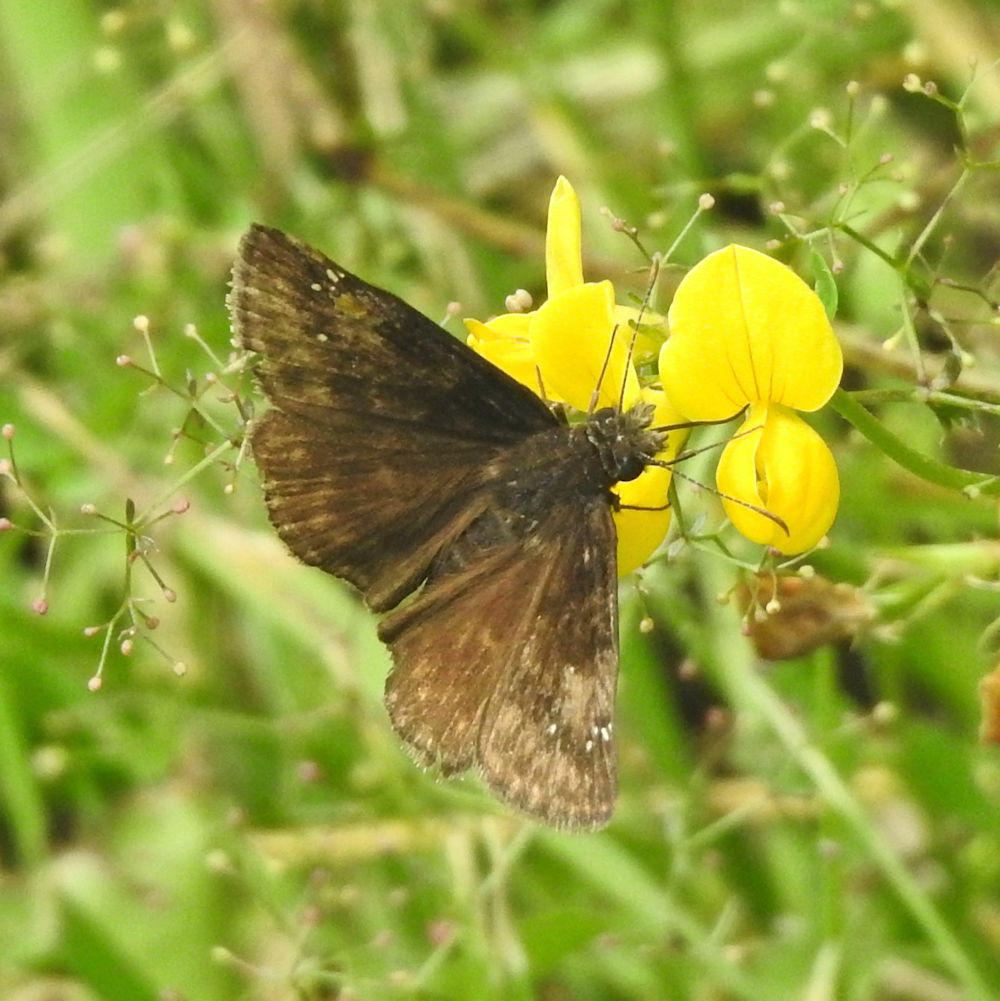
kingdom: Animalia
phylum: Arthropoda
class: Insecta
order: Lepidoptera
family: Hesperiidae
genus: Erynnis
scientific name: Erynnis baptisiae
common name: Wild indigo duskywing
